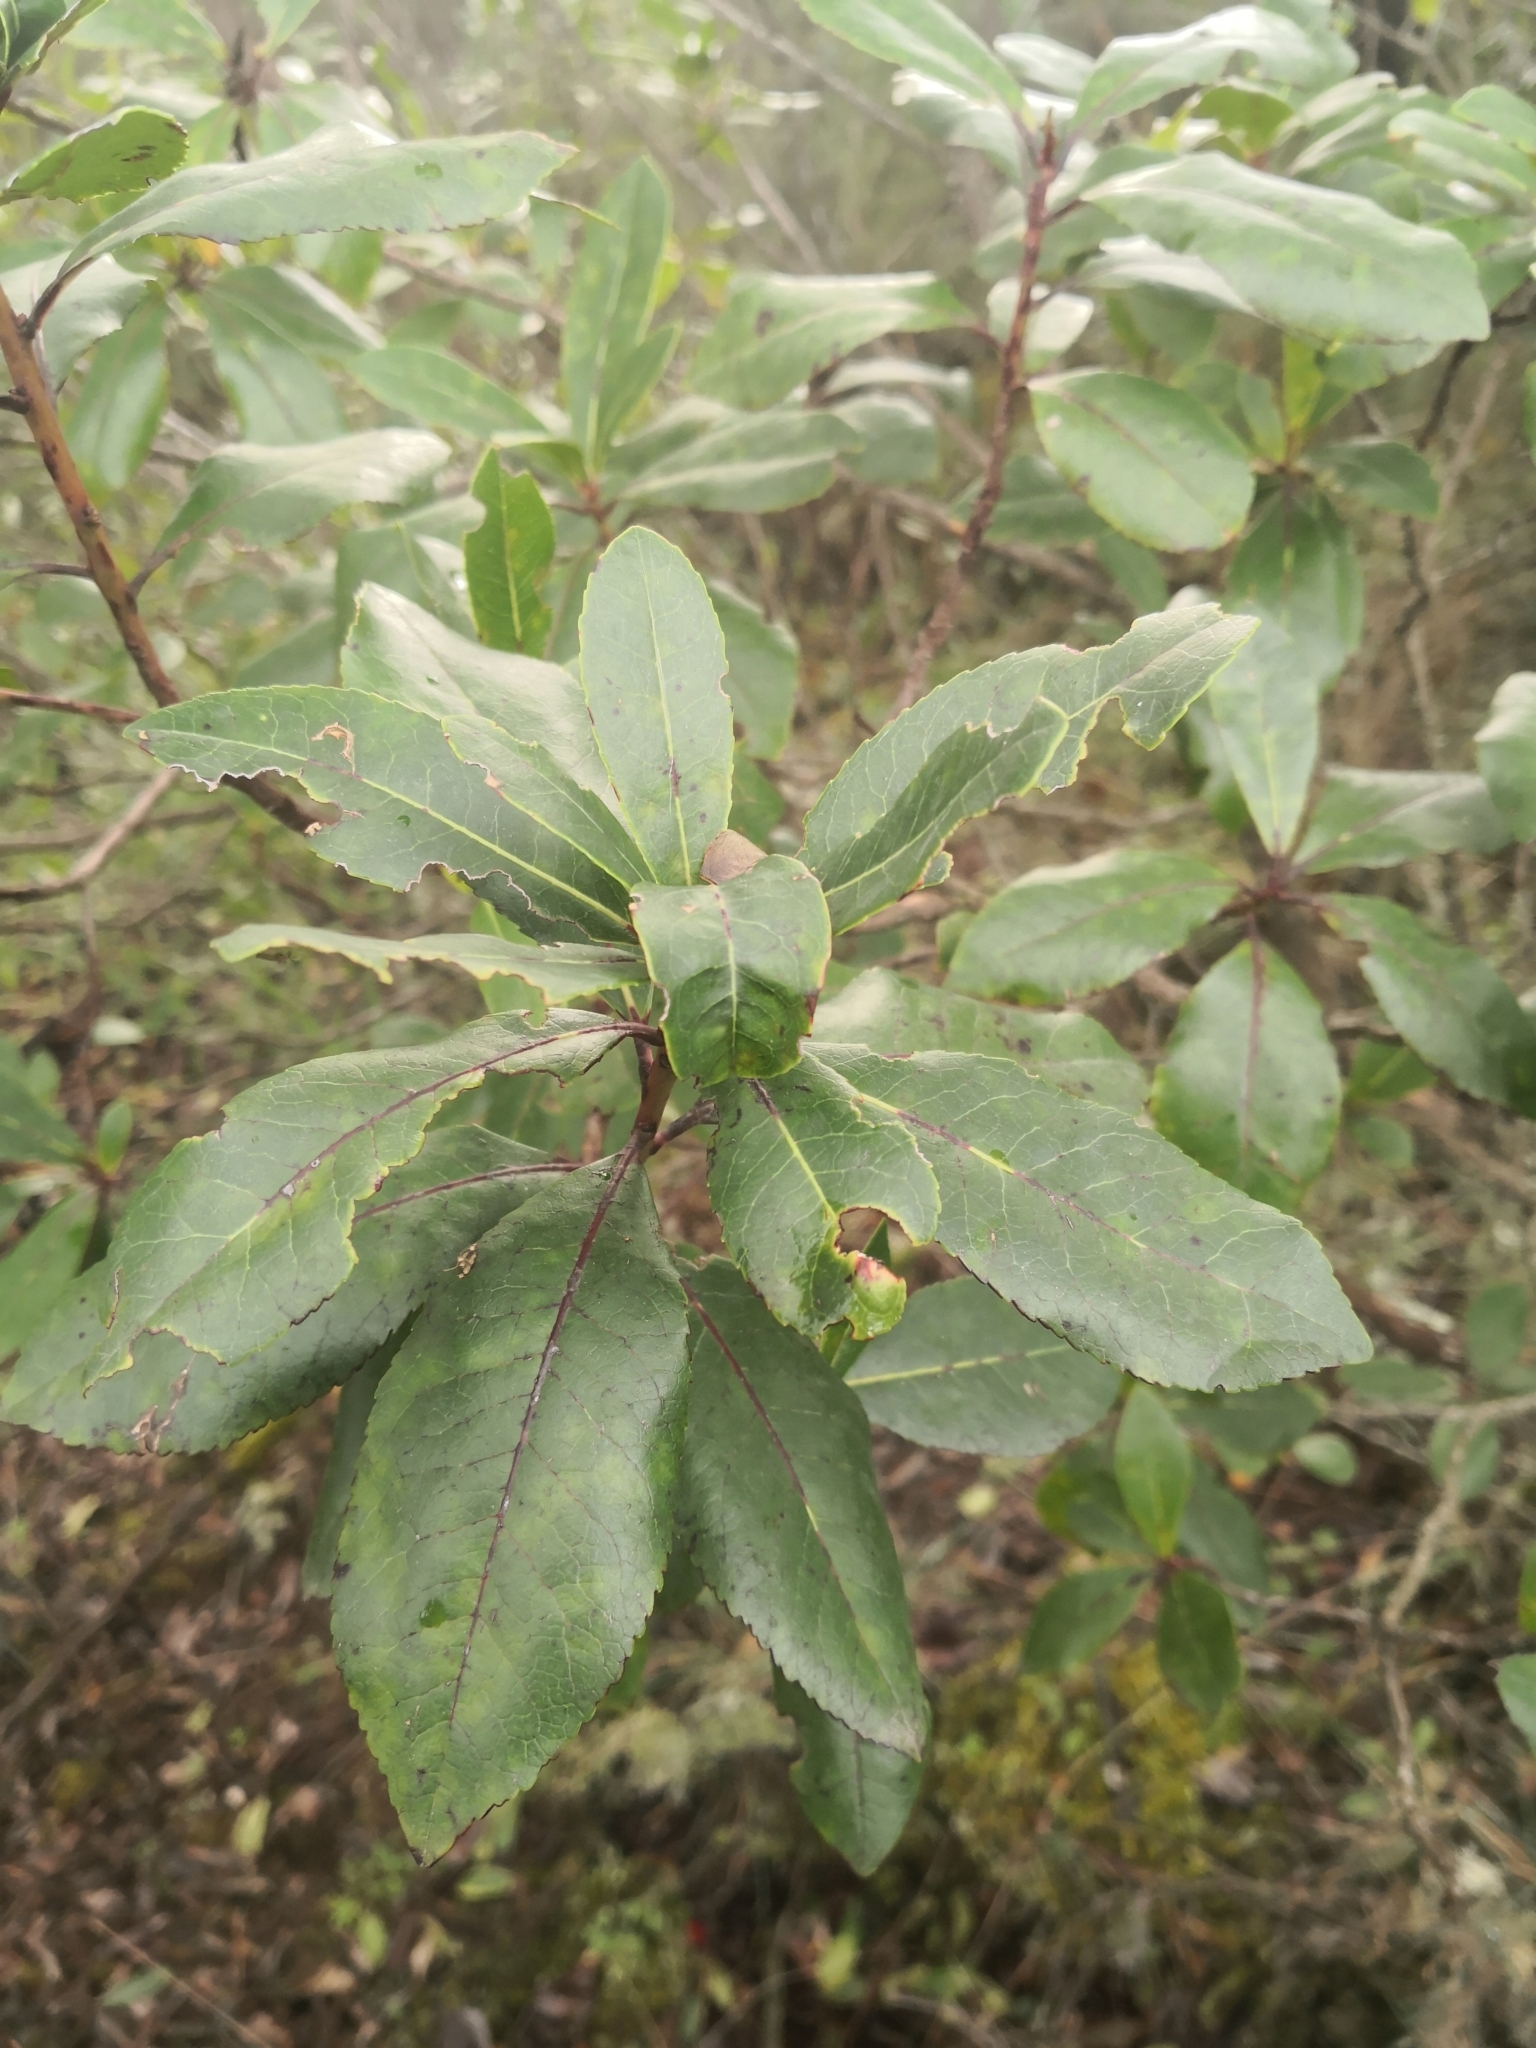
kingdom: Plantae
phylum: Tracheophyta
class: Magnoliopsida
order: Ericales
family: Ericaceae
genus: Arbutus
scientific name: Arbutus unedo
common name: Strawberry-tree
